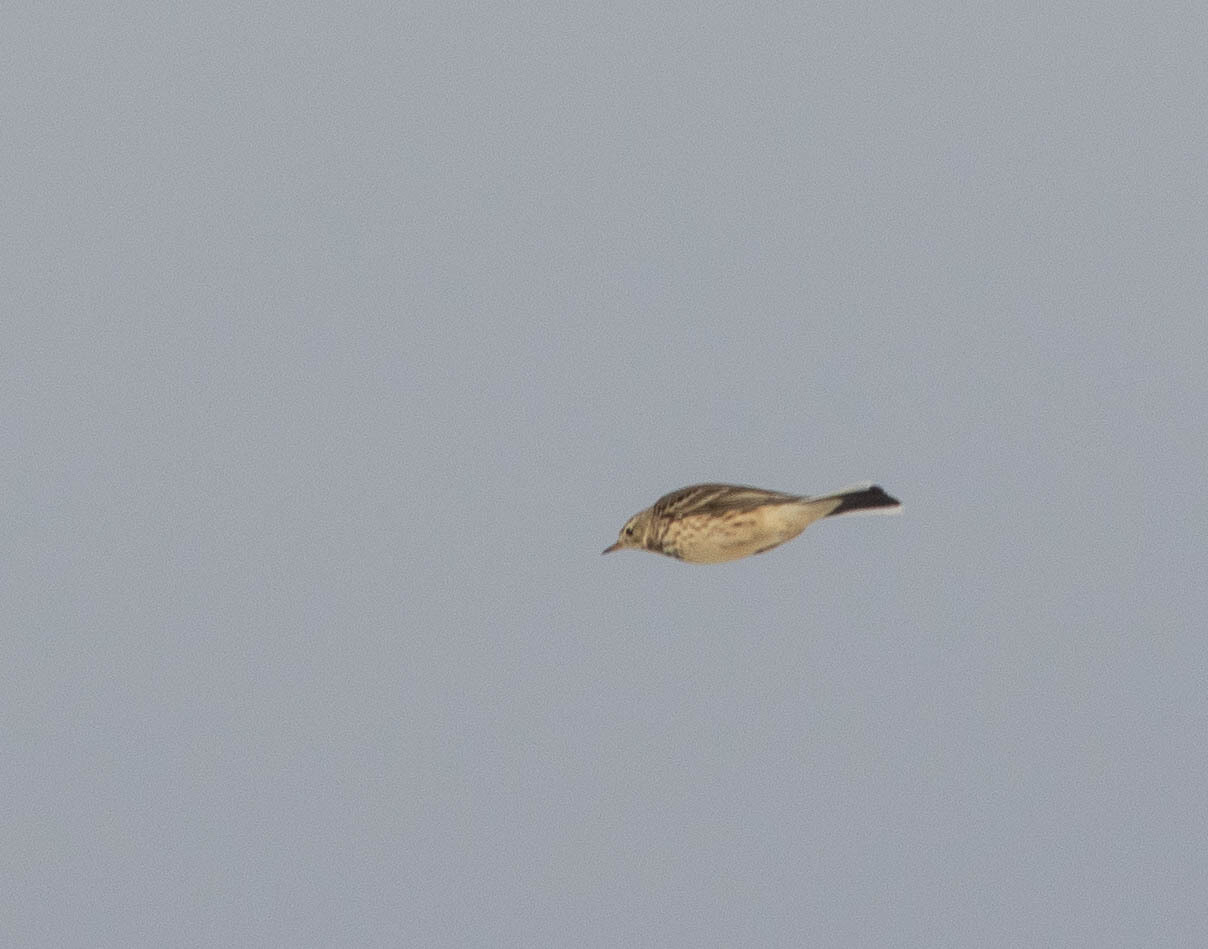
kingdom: Animalia
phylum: Chordata
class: Aves
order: Passeriformes
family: Motacillidae
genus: Anthus
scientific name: Anthus rubescens
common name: Buff-bellied pipit
